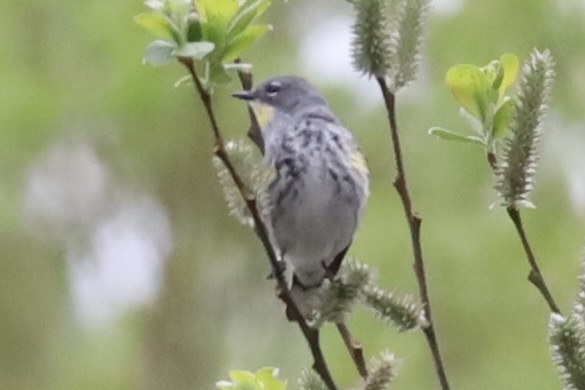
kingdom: Animalia
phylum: Chordata
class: Aves
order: Passeriformes
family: Parulidae
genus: Setophaga
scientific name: Setophaga coronata
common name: Myrtle warbler
